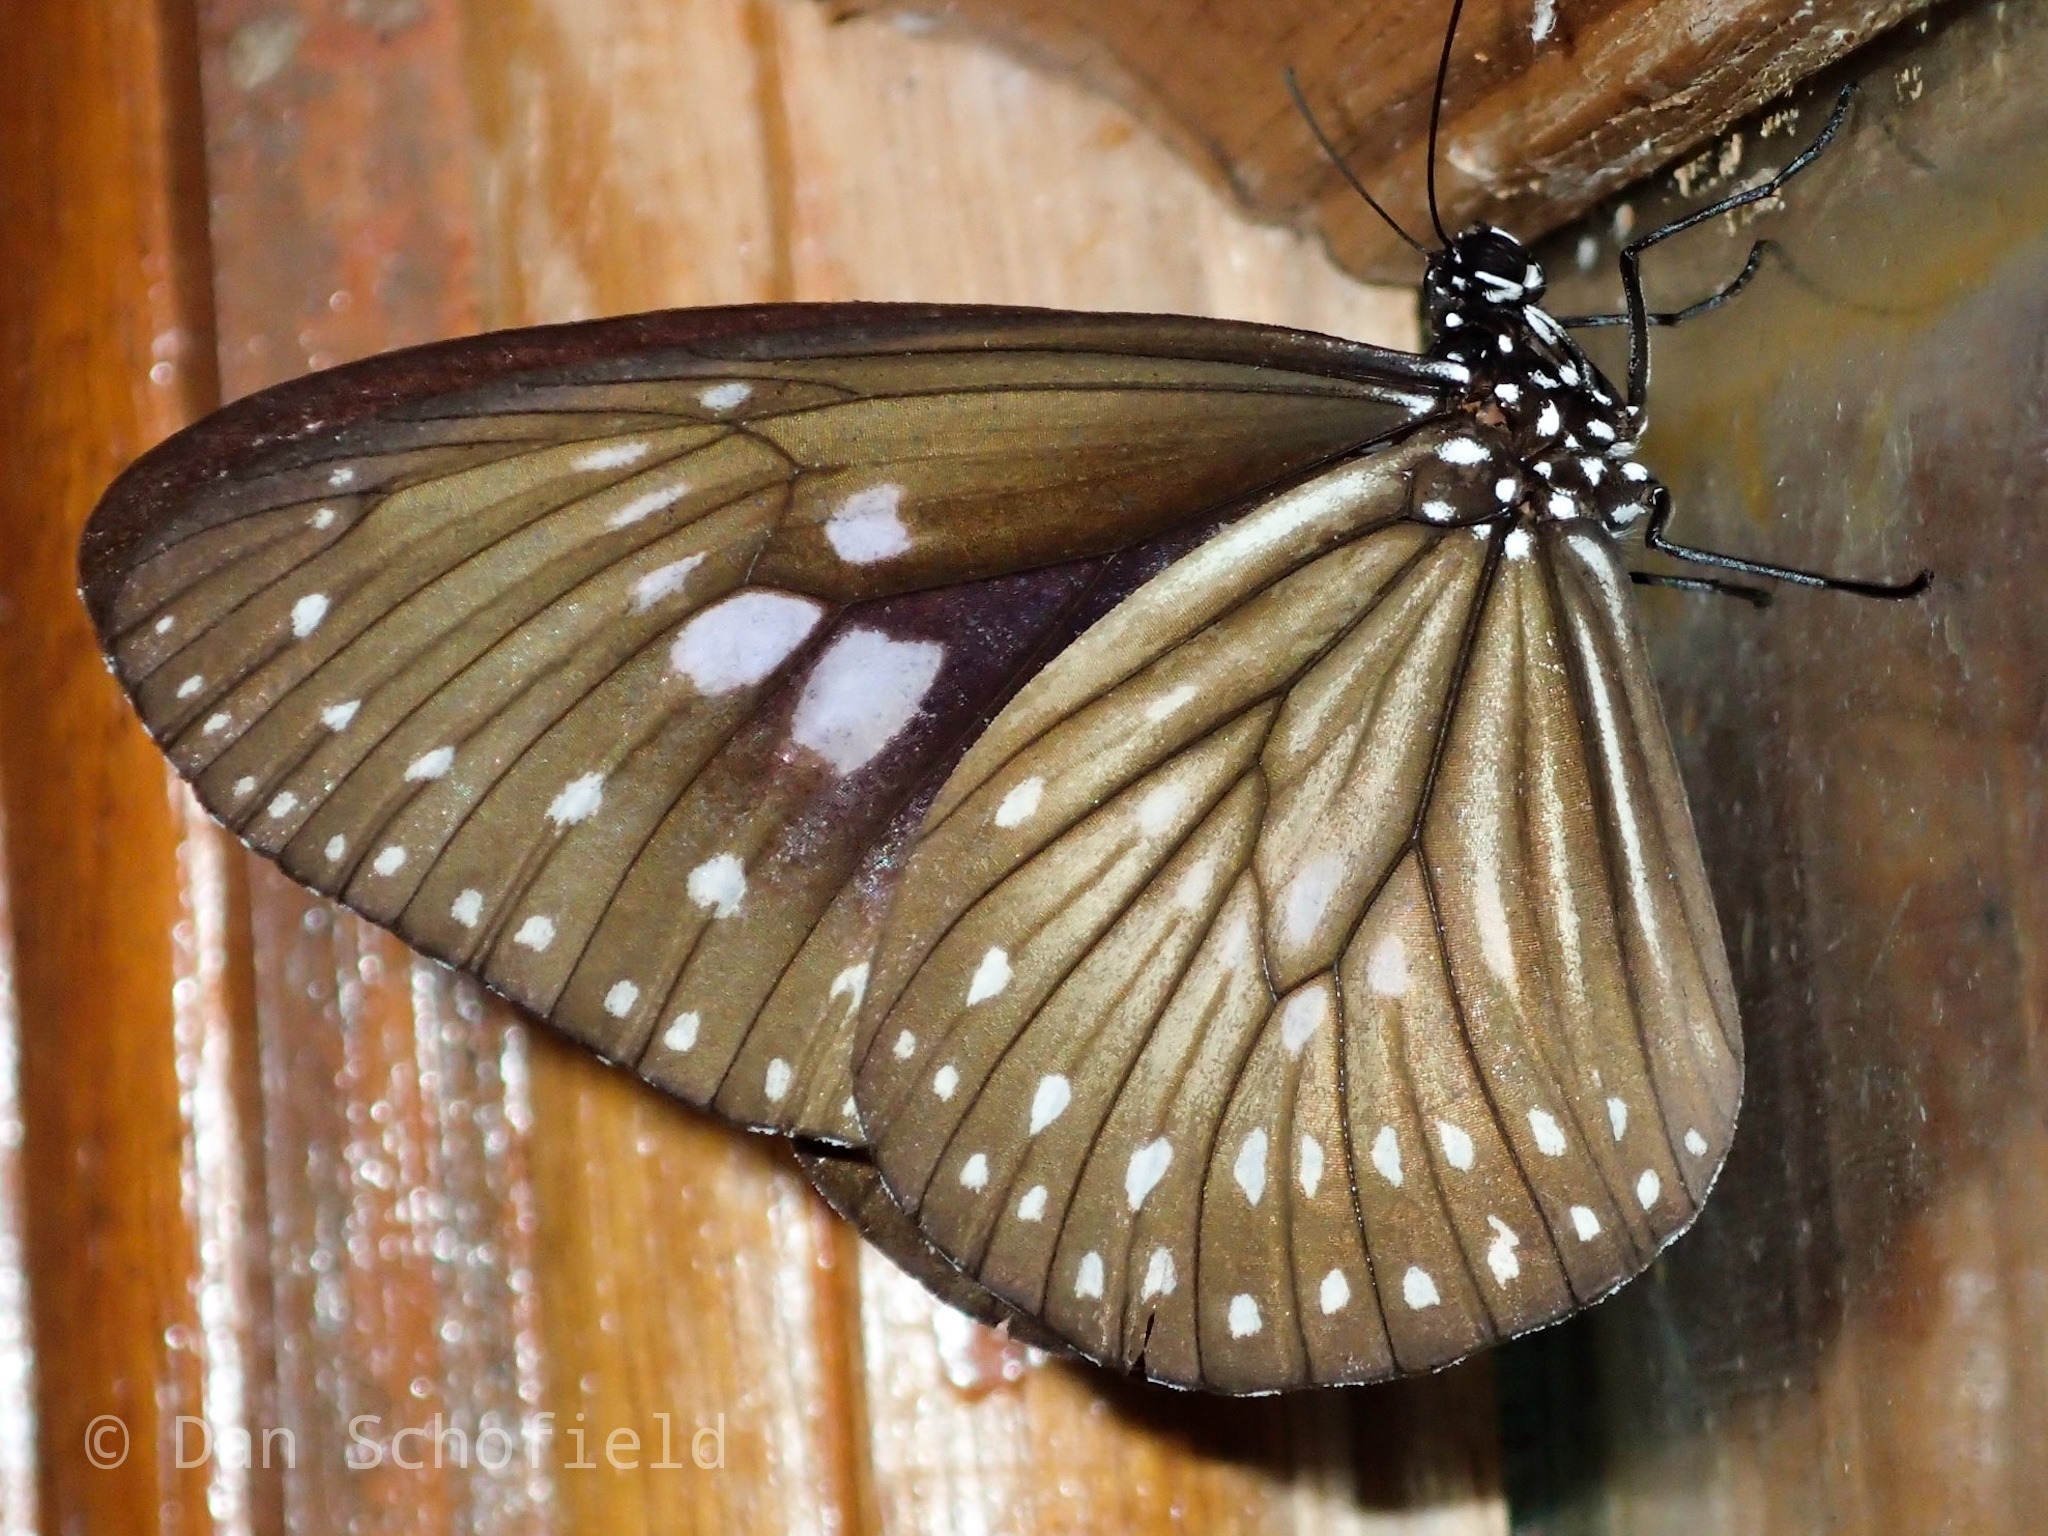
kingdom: Animalia
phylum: Arthropoda
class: Insecta
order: Lepidoptera
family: Nymphalidae
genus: Euploea
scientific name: Euploea algea
